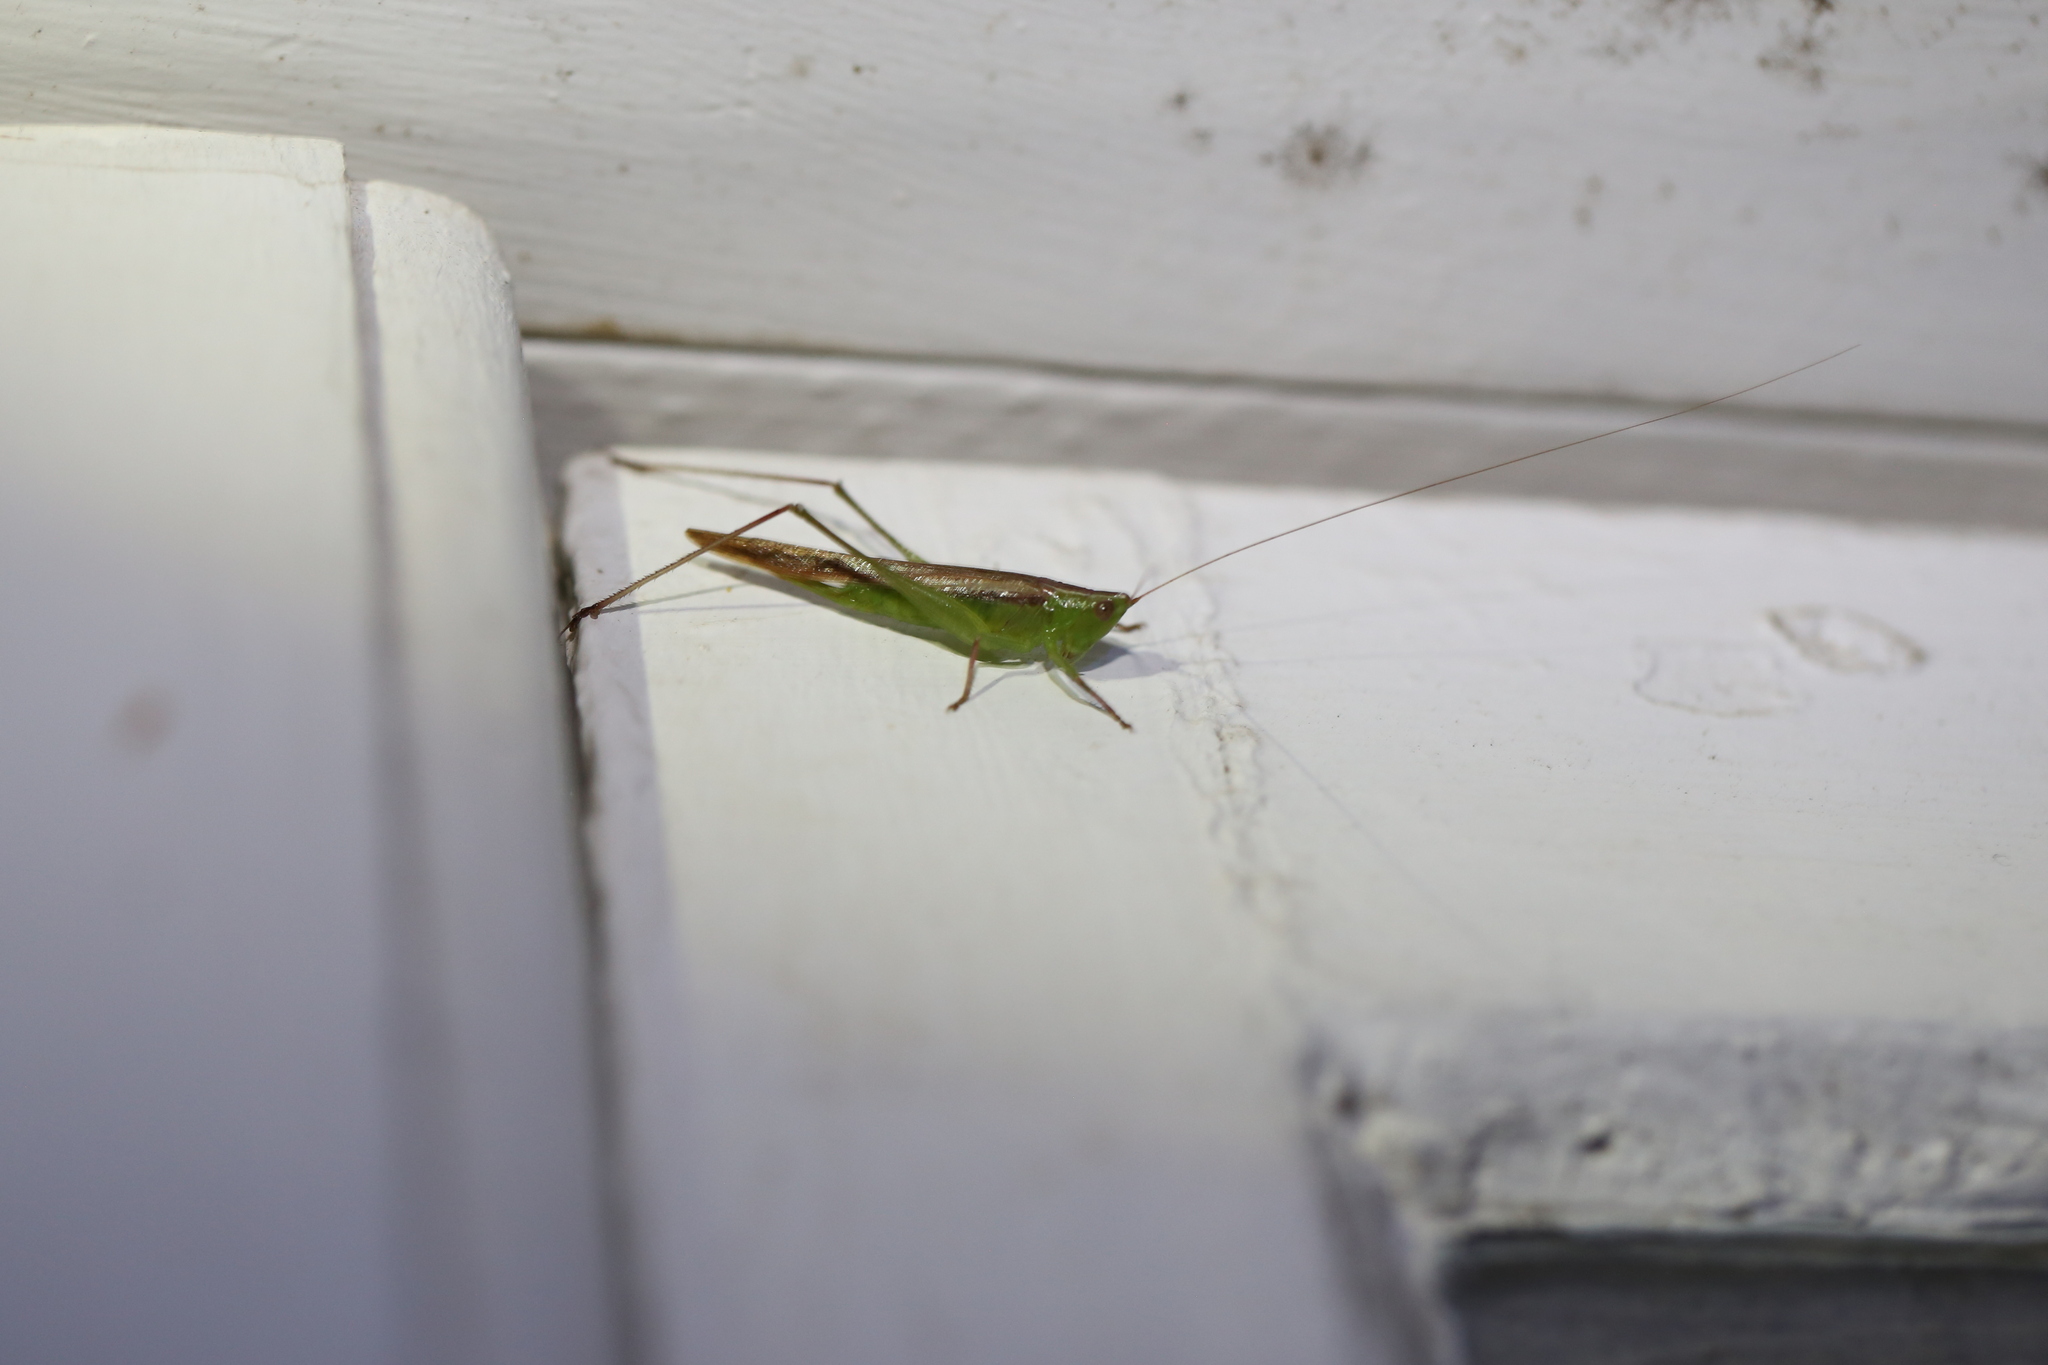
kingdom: Animalia
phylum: Arthropoda
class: Insecta
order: Orthoptera
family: Tettigoniidae
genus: Conocephalus
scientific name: Conocephalus upoluensis
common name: Upolu meadow katydid
